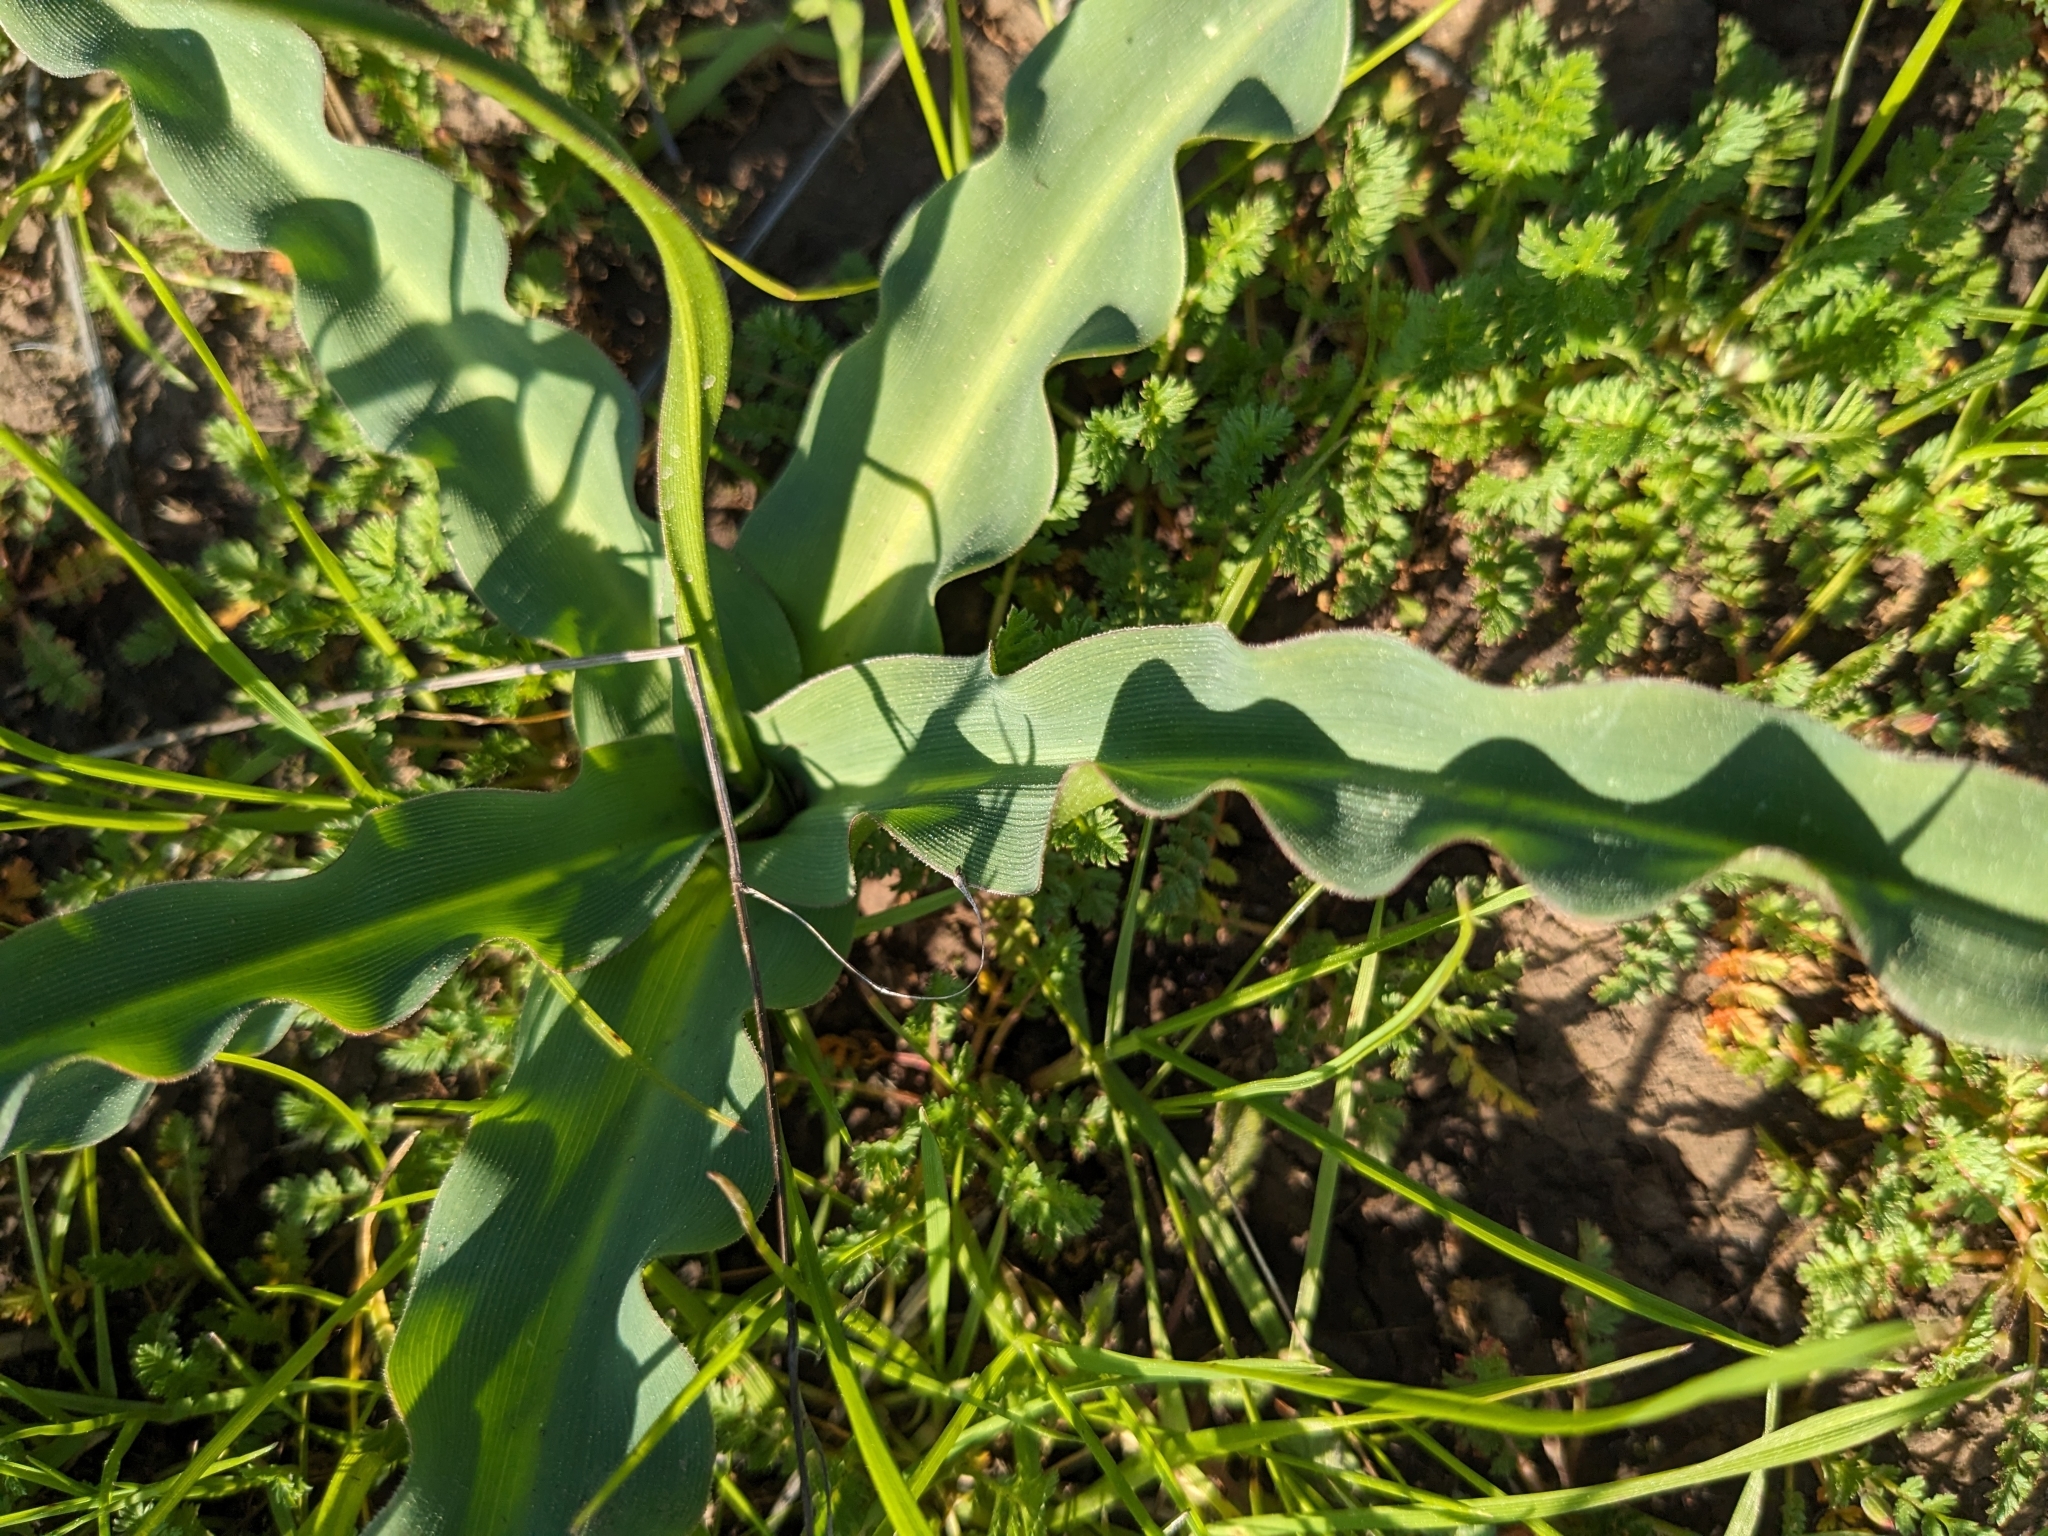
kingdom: Plantae
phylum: Tracheophyta
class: Liliopsida
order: Asparagales
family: Asparagaceae
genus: Chlorogalum
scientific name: Chlorogalum pomeridianum
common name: Amole
